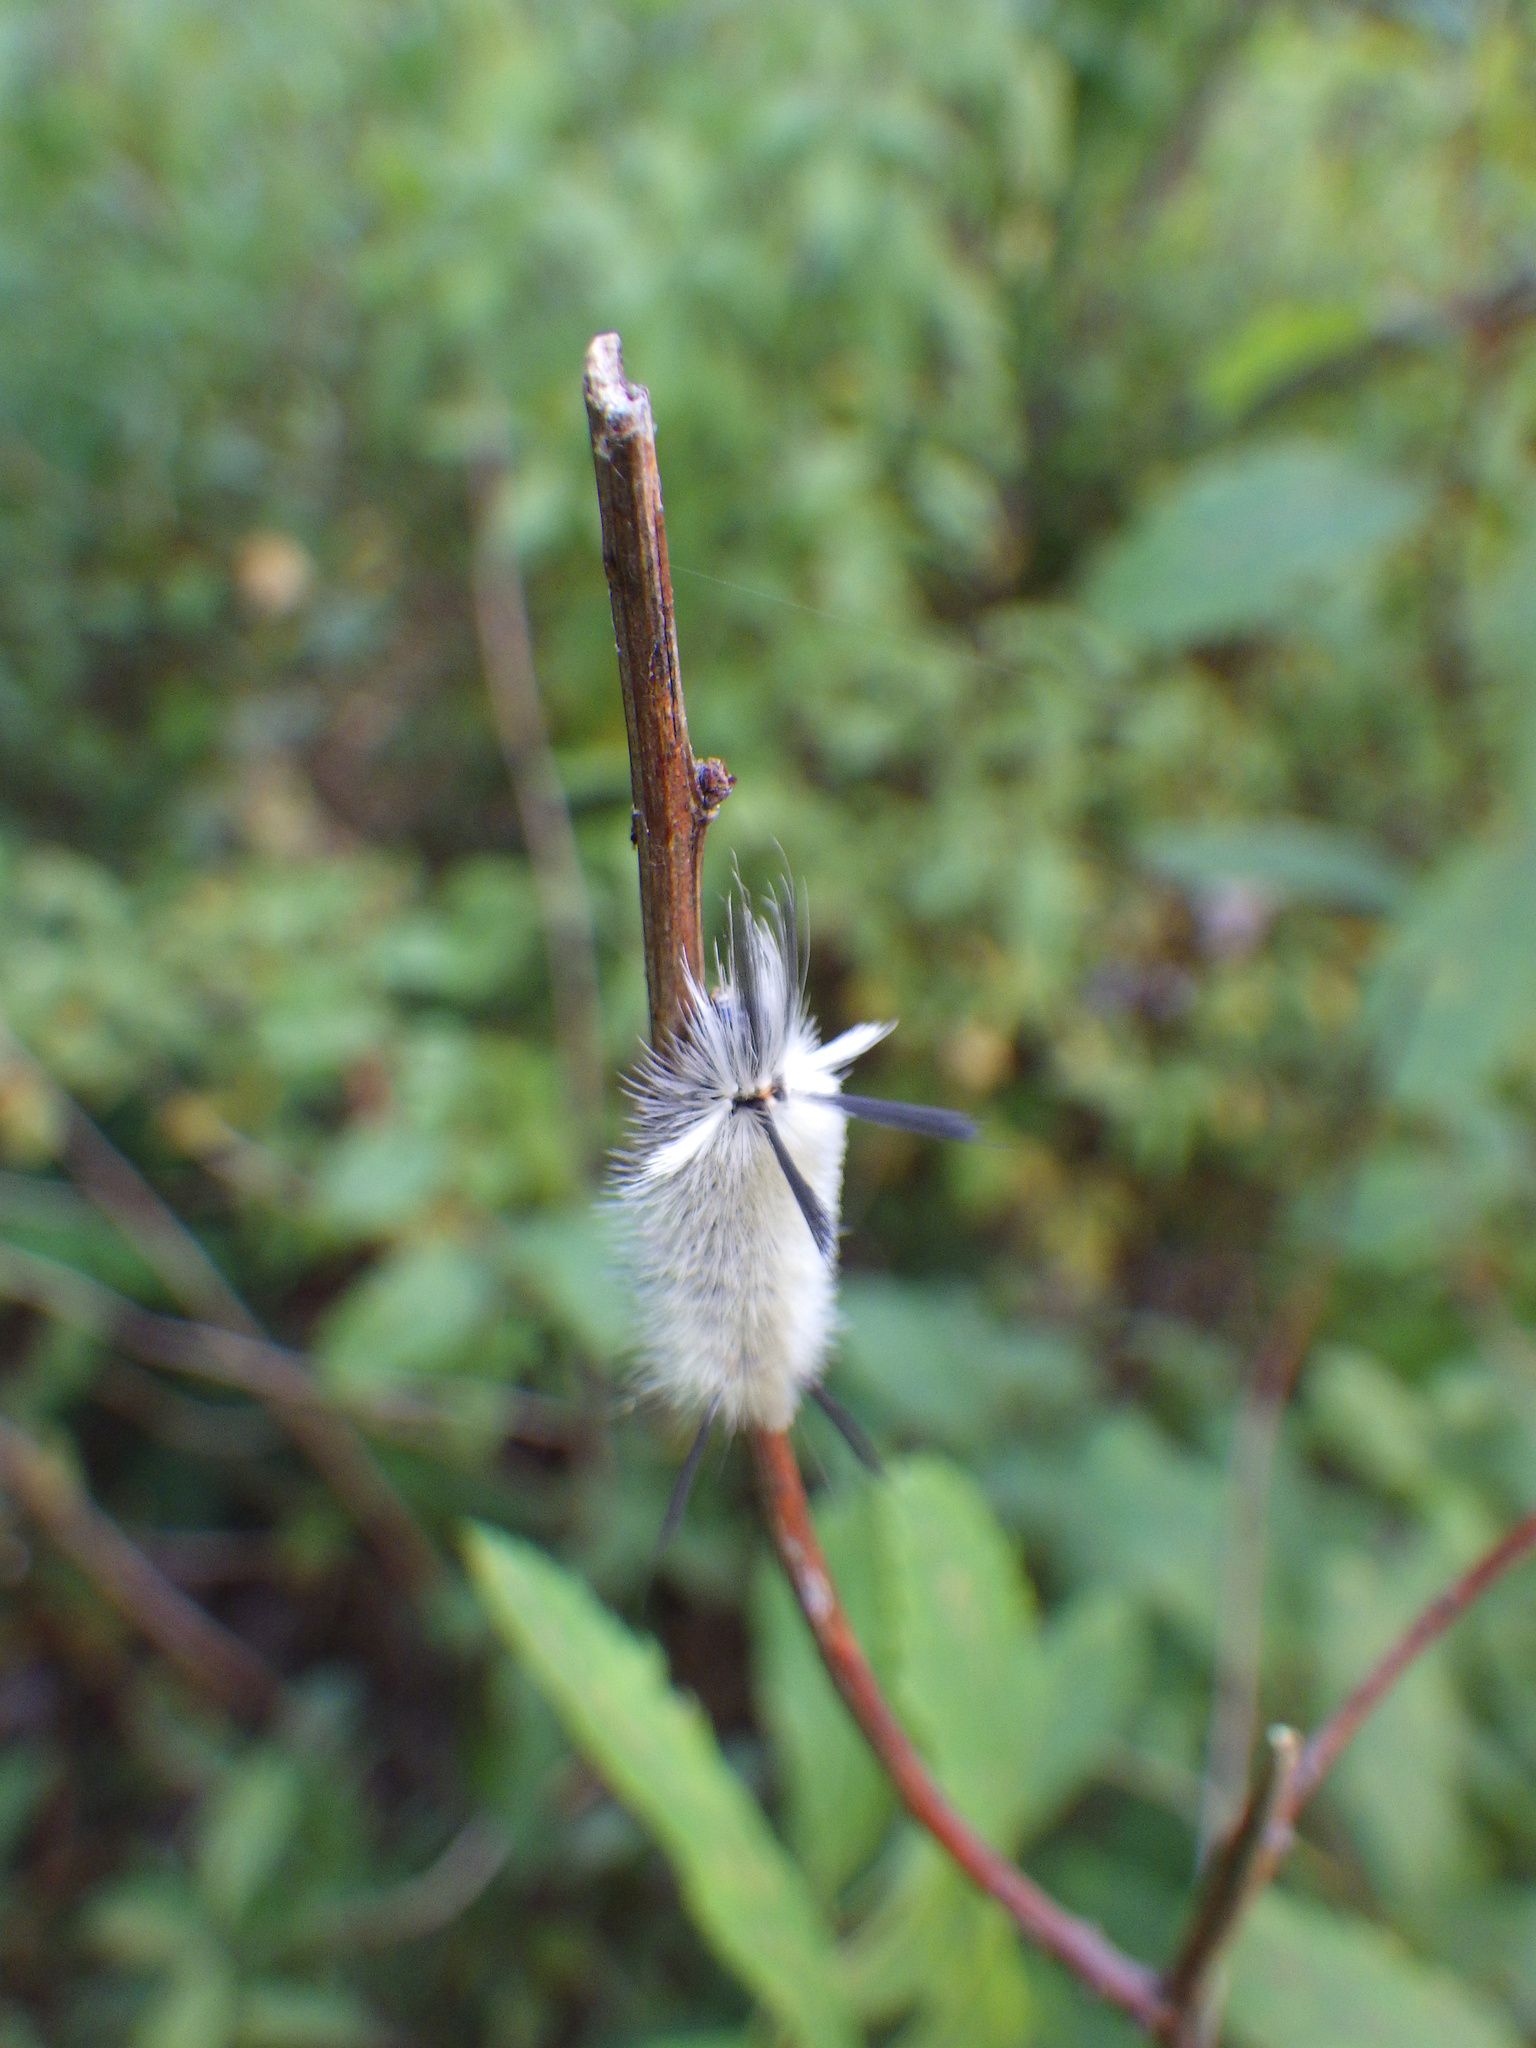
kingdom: Animalia
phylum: Arthropoda
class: Insecta
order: Lepidoptera
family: Erebidae
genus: Halysidota
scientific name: Halysidota tessellaris
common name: Banded tussock moth
